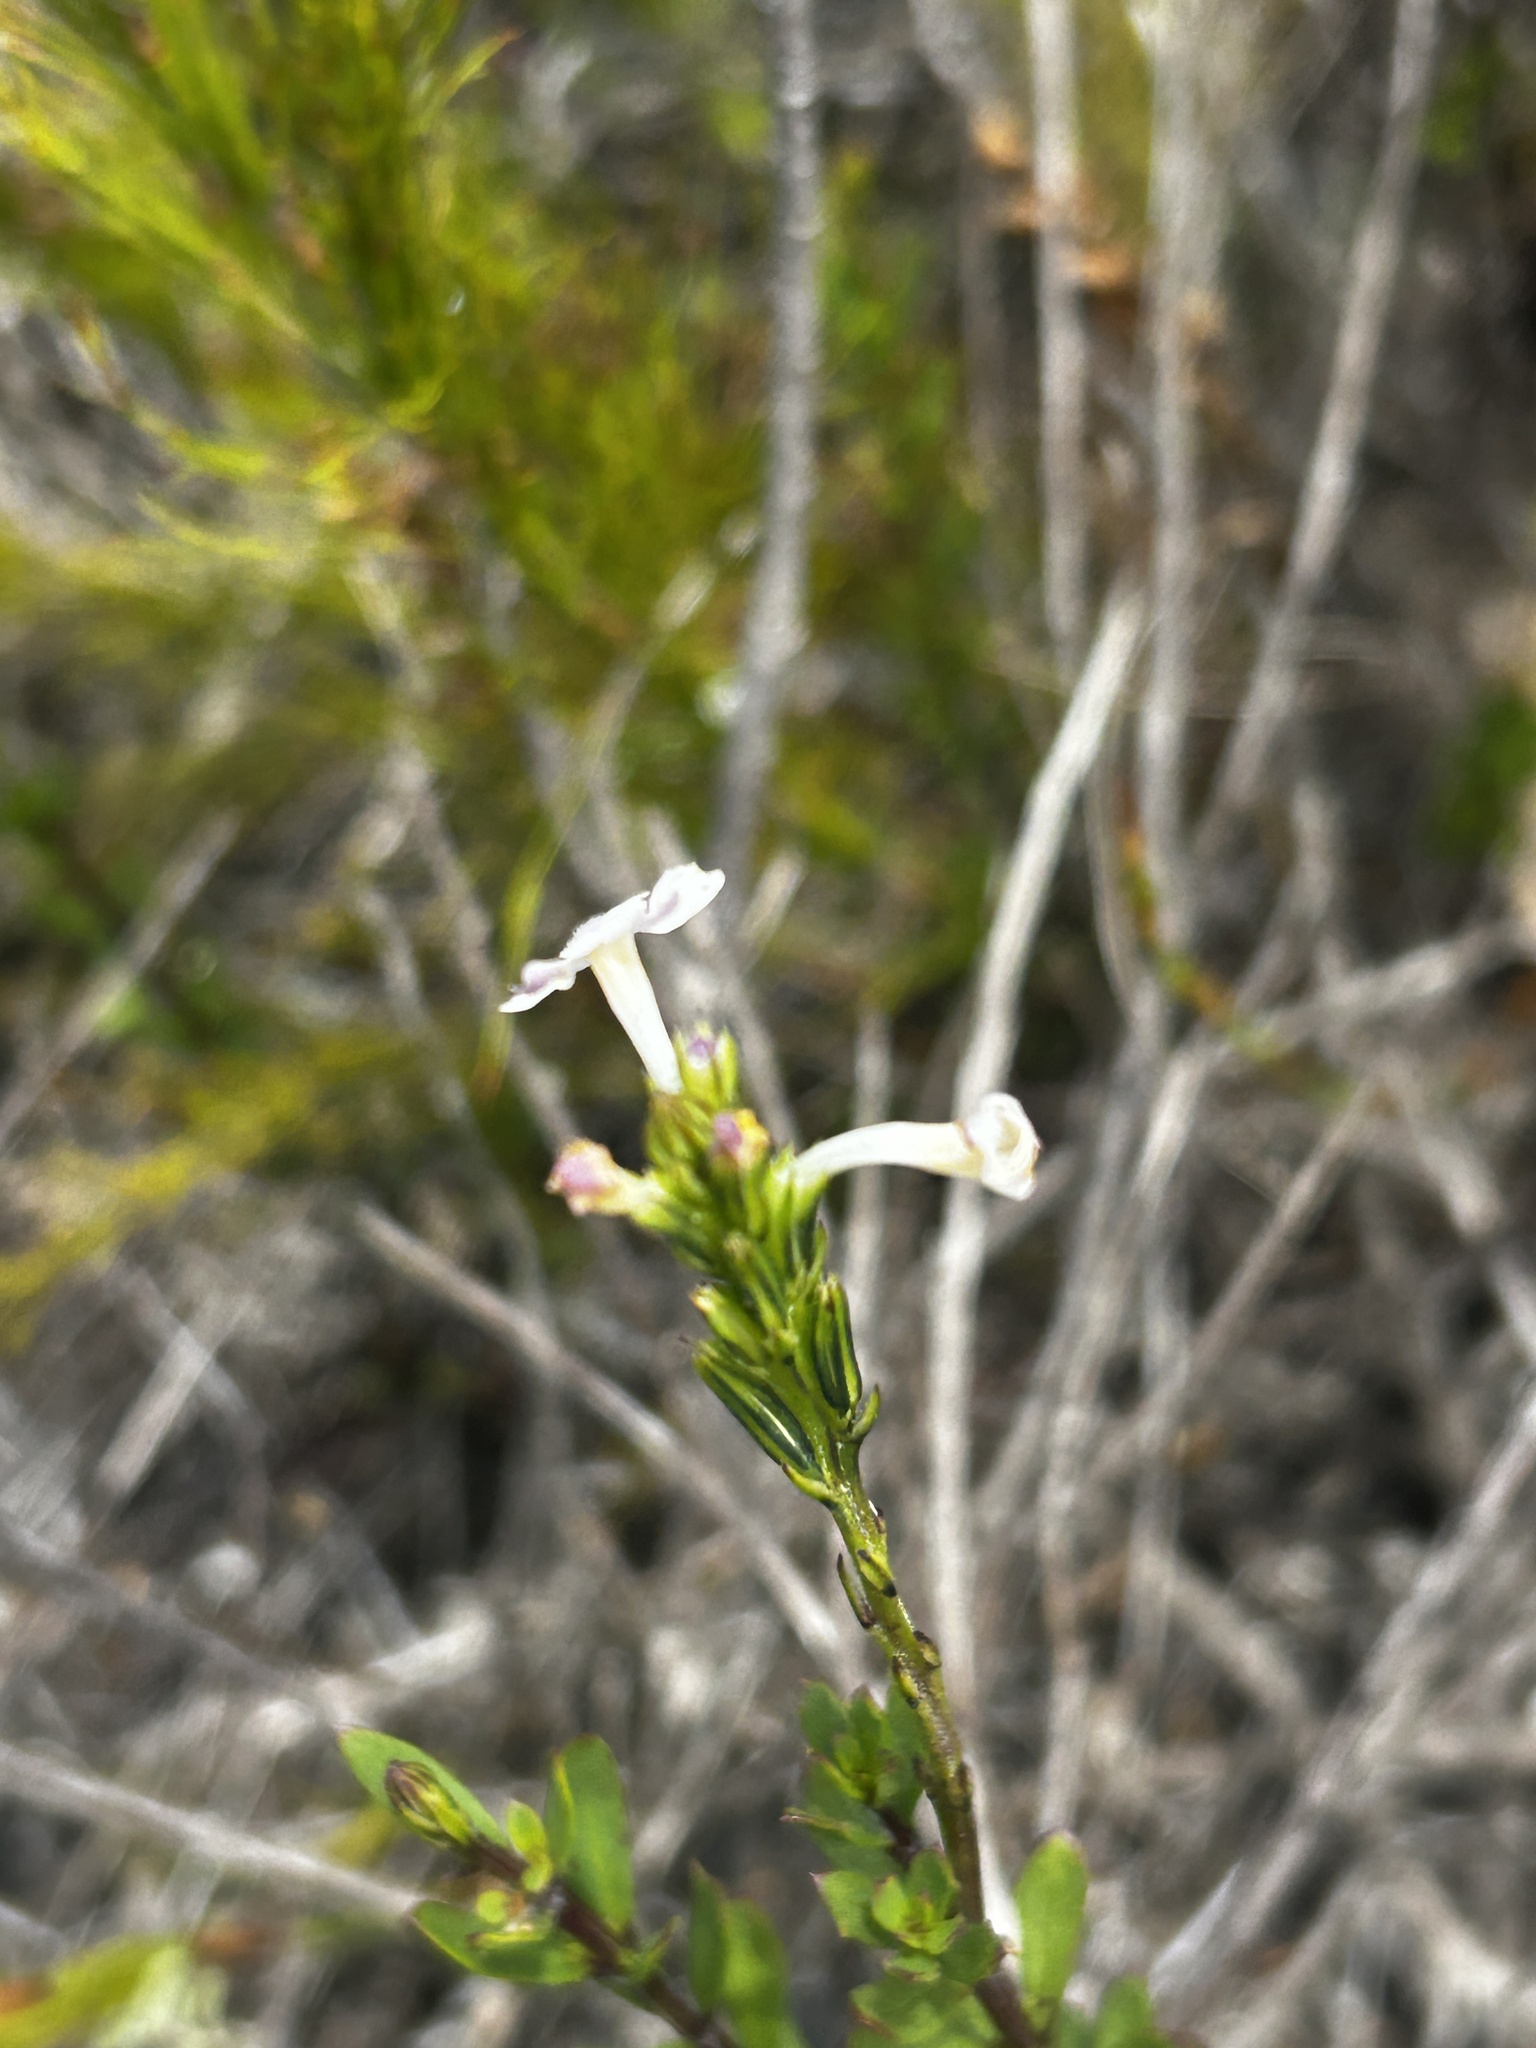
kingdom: Plantae
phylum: Tracheophyta
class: Magnoliopsida
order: Lamiales
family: Verbenaceae
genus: Chascanum
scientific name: Chascanum cernuum
